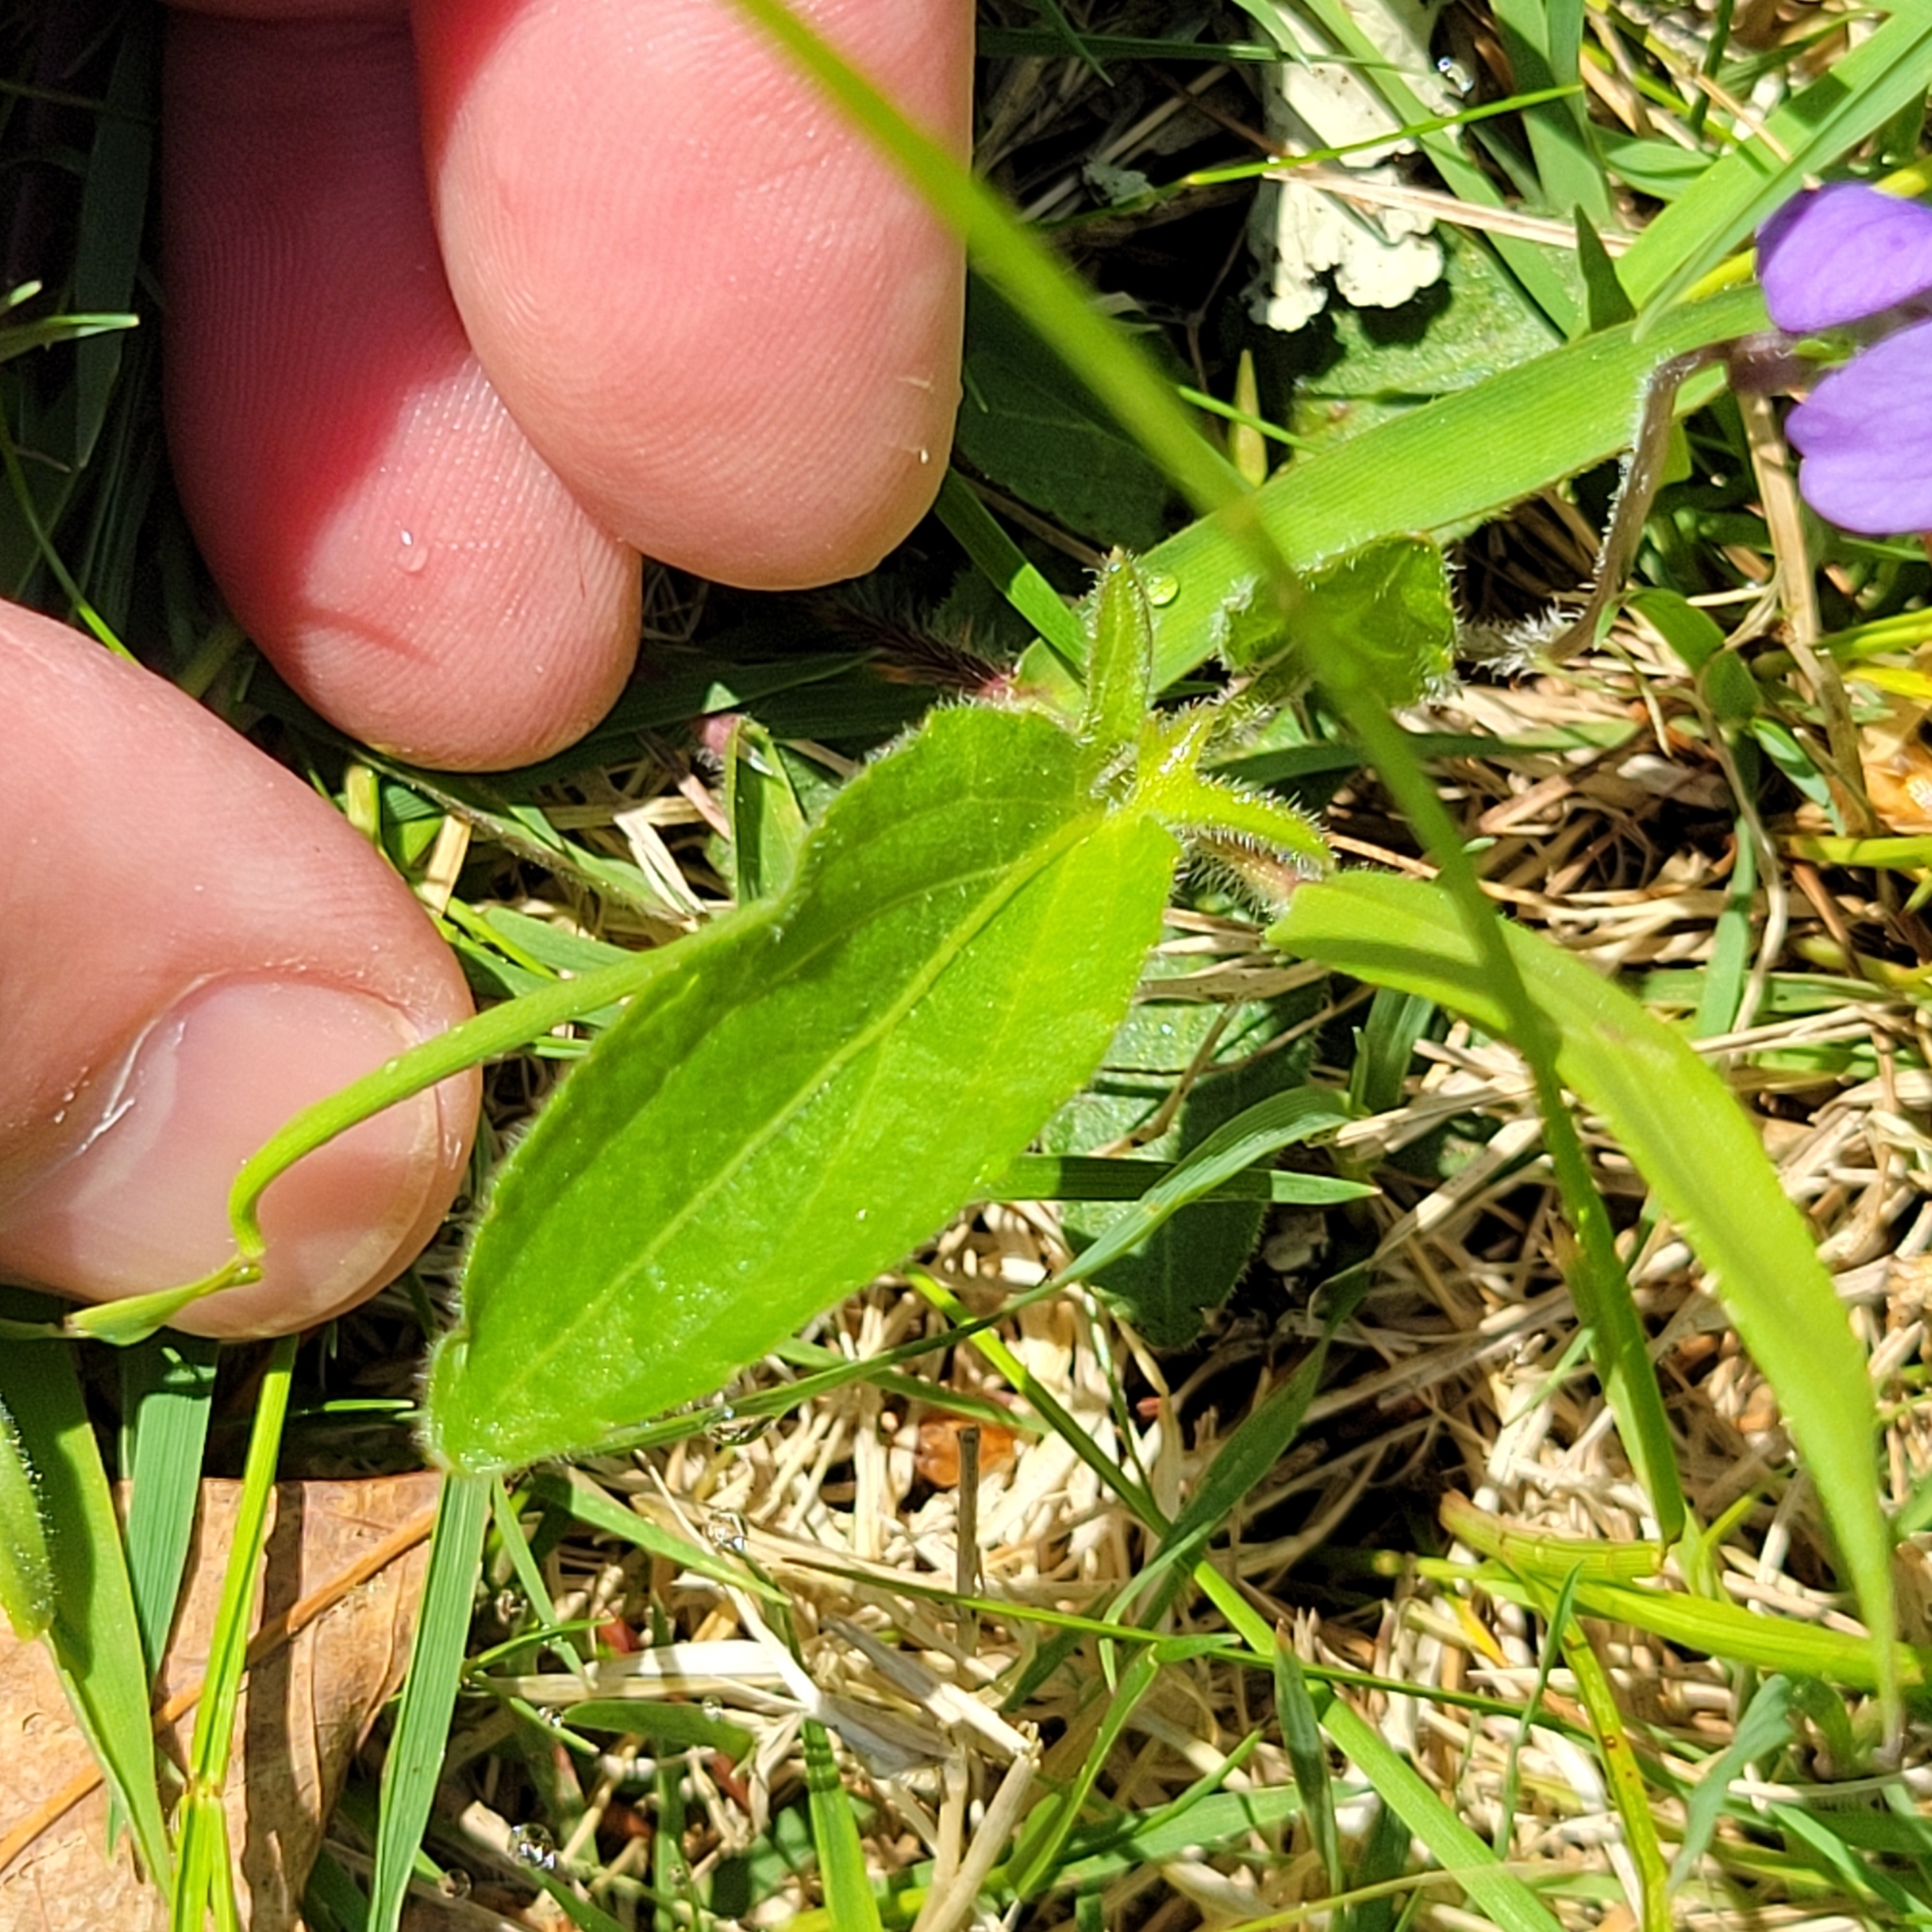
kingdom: Plantae
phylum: Tracheophyta
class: Magnoliopsida
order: Malpighiales
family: Violaceae
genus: Viola
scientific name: Viola sagittata
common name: Arrowhead violet
